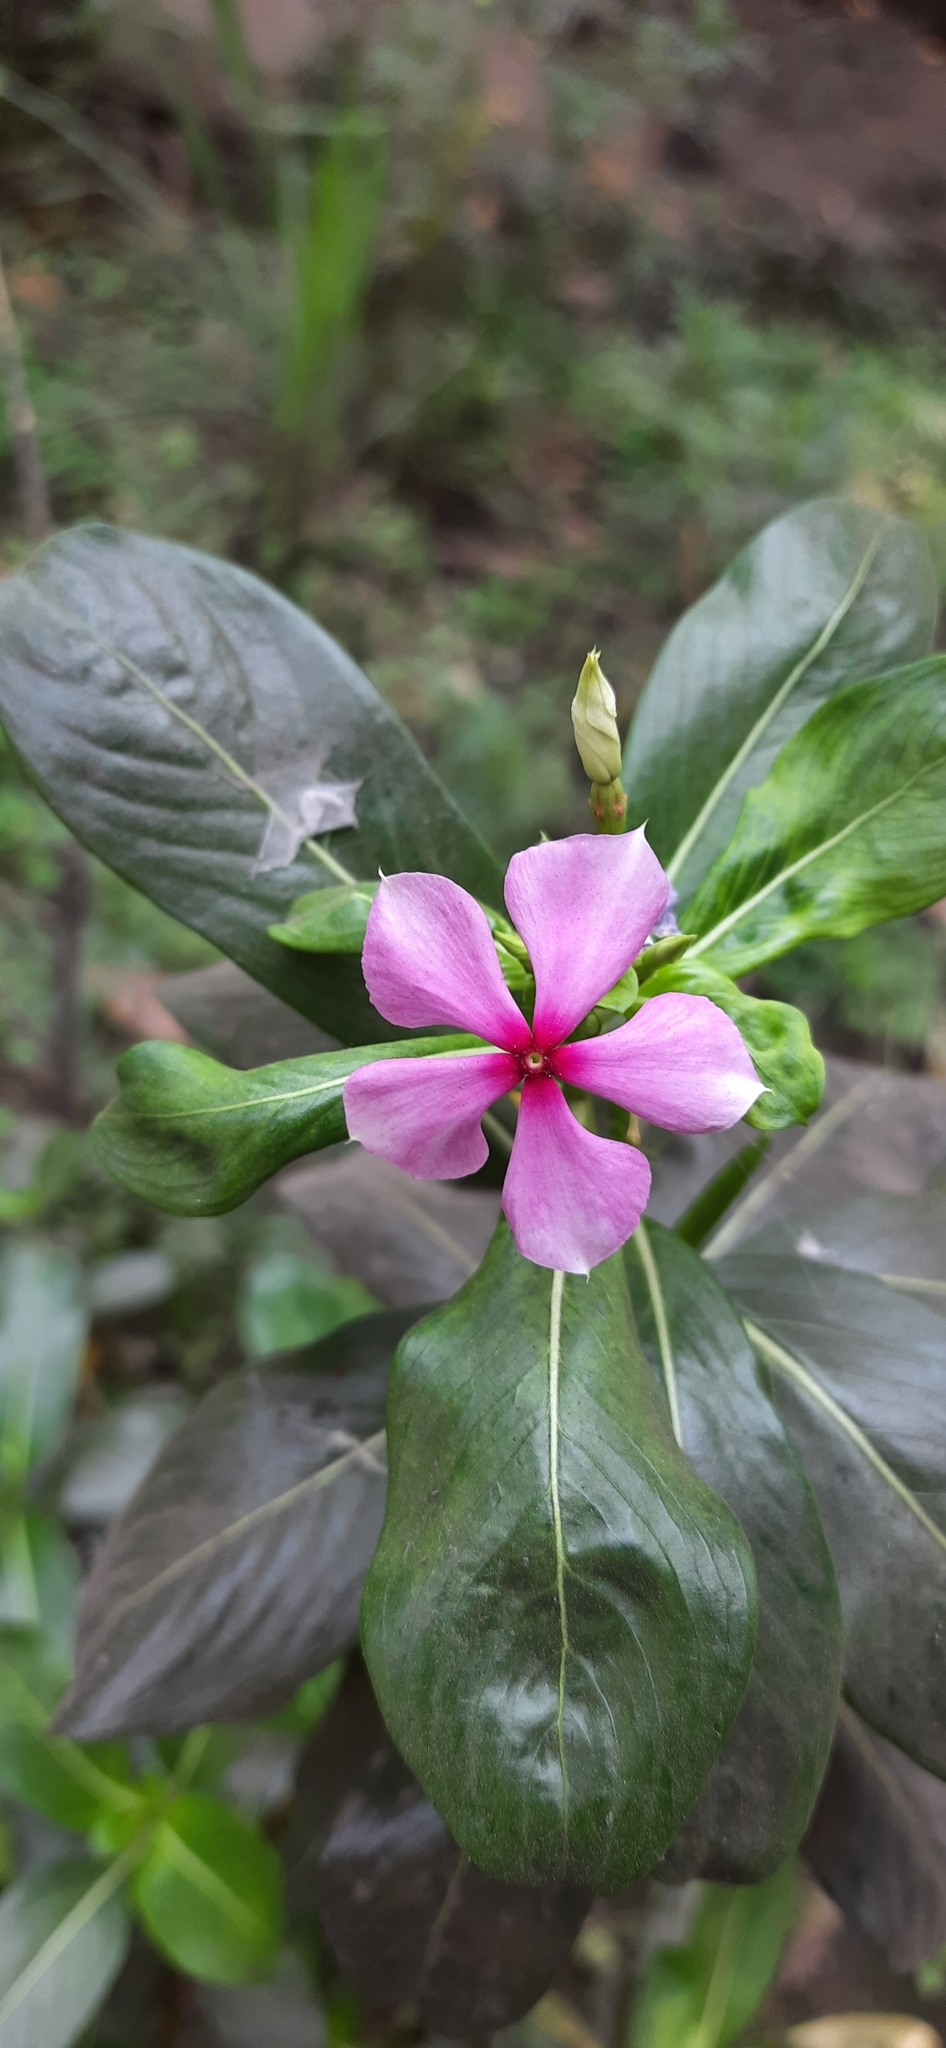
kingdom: Plantae
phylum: Tracheophyta
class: Magnoliopsida
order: Gentianales
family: Apocynaceae
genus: Catharanthus
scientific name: Catharanthus roseus
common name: Madagascar periwinkle
